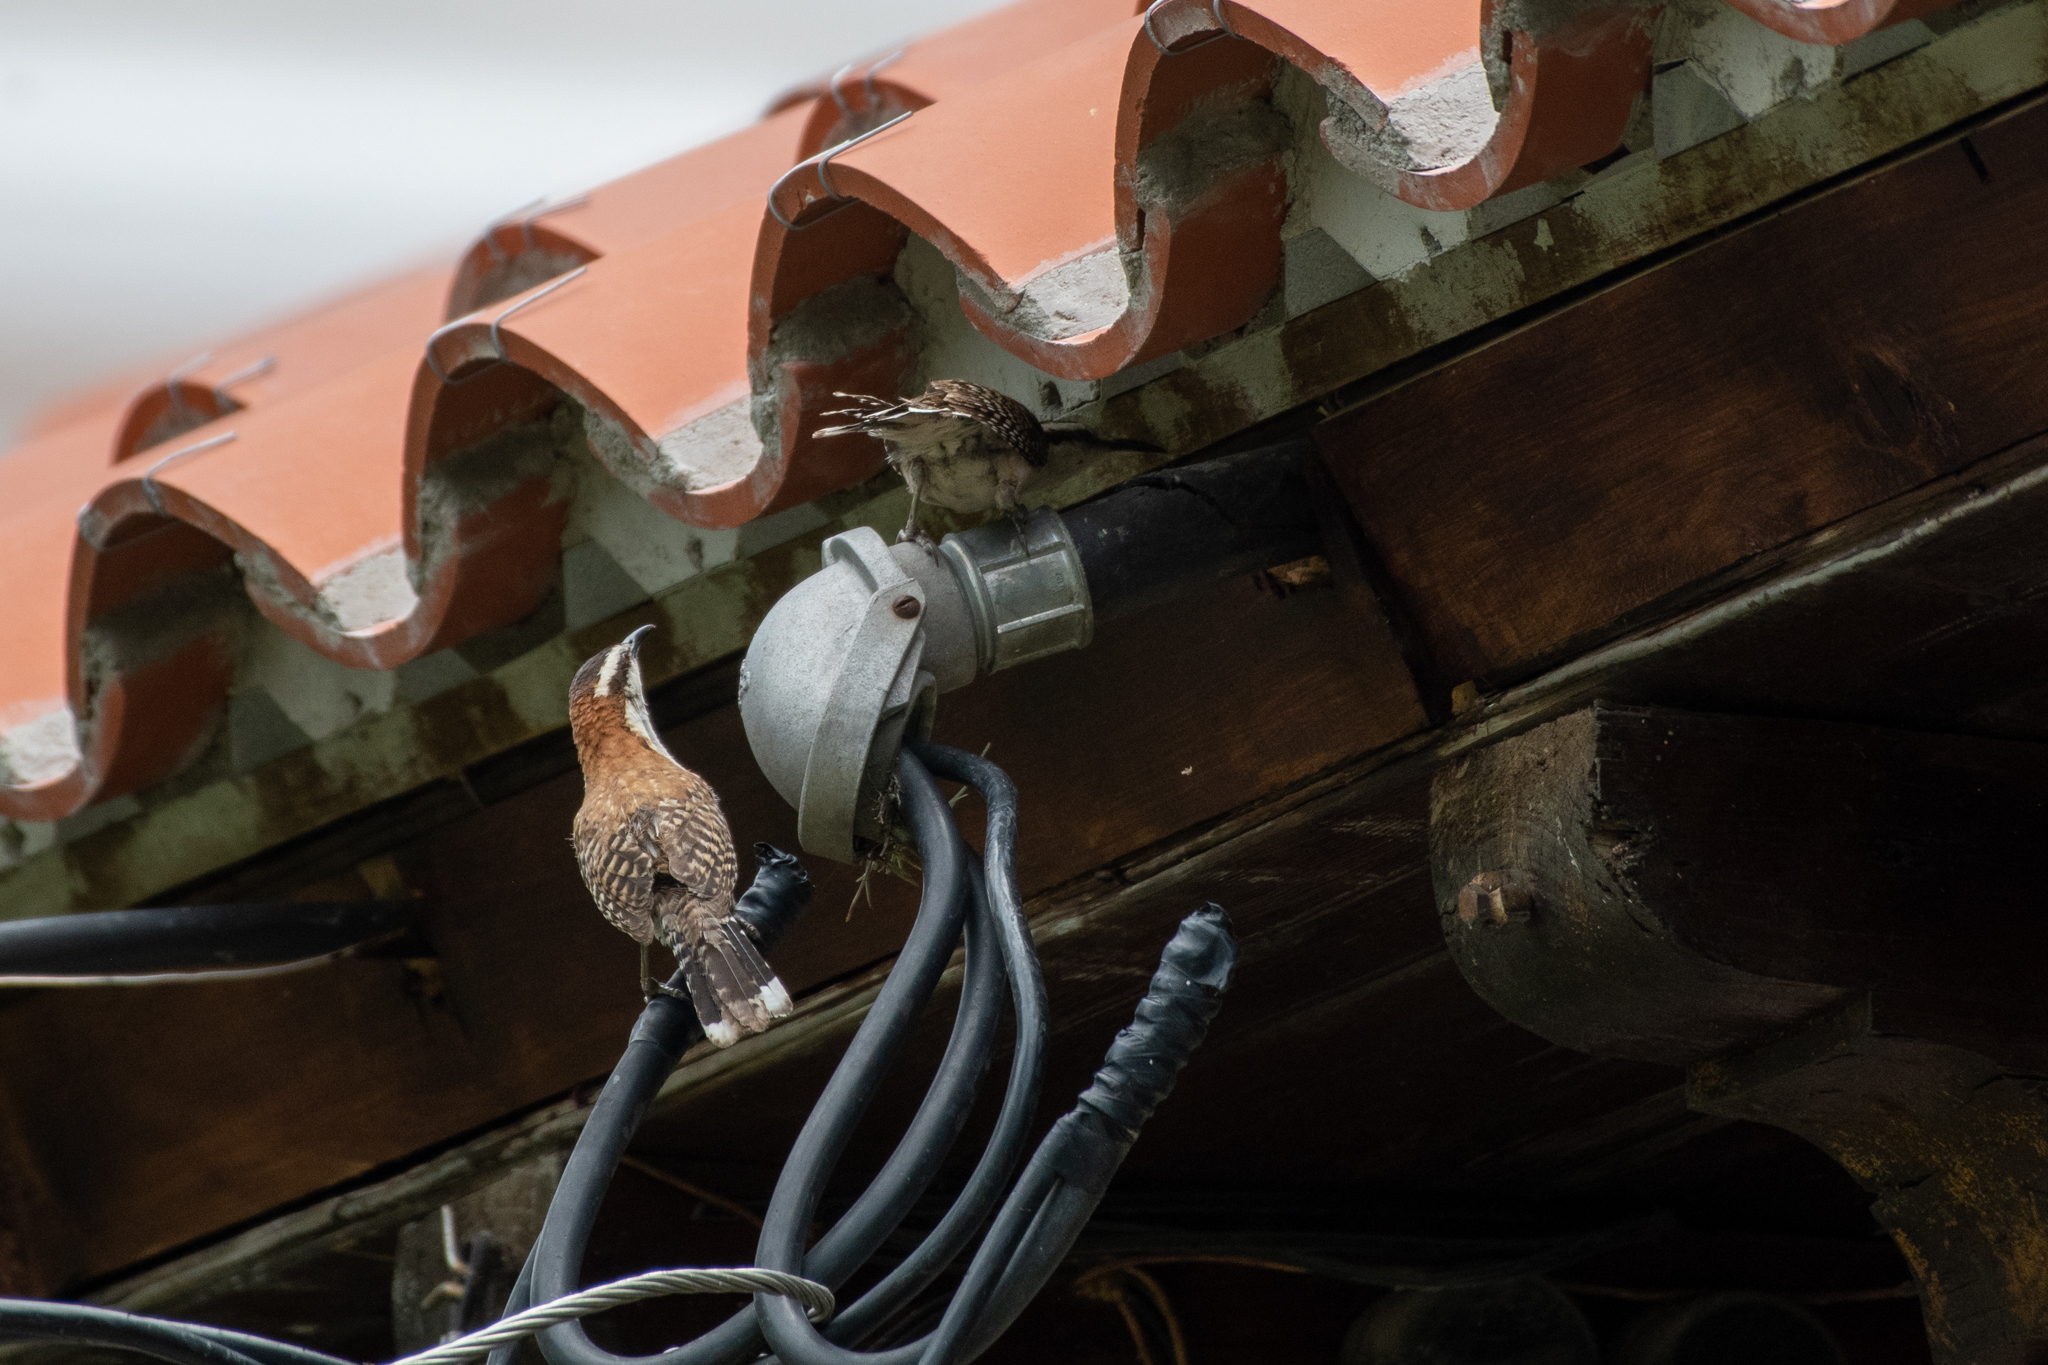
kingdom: Animalia
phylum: Chordata
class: Aves
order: Passeriformes
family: Troglodytidae
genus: Campylorhynchus
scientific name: Campylorhynchus rufinucha
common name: Rufous-naped wren
